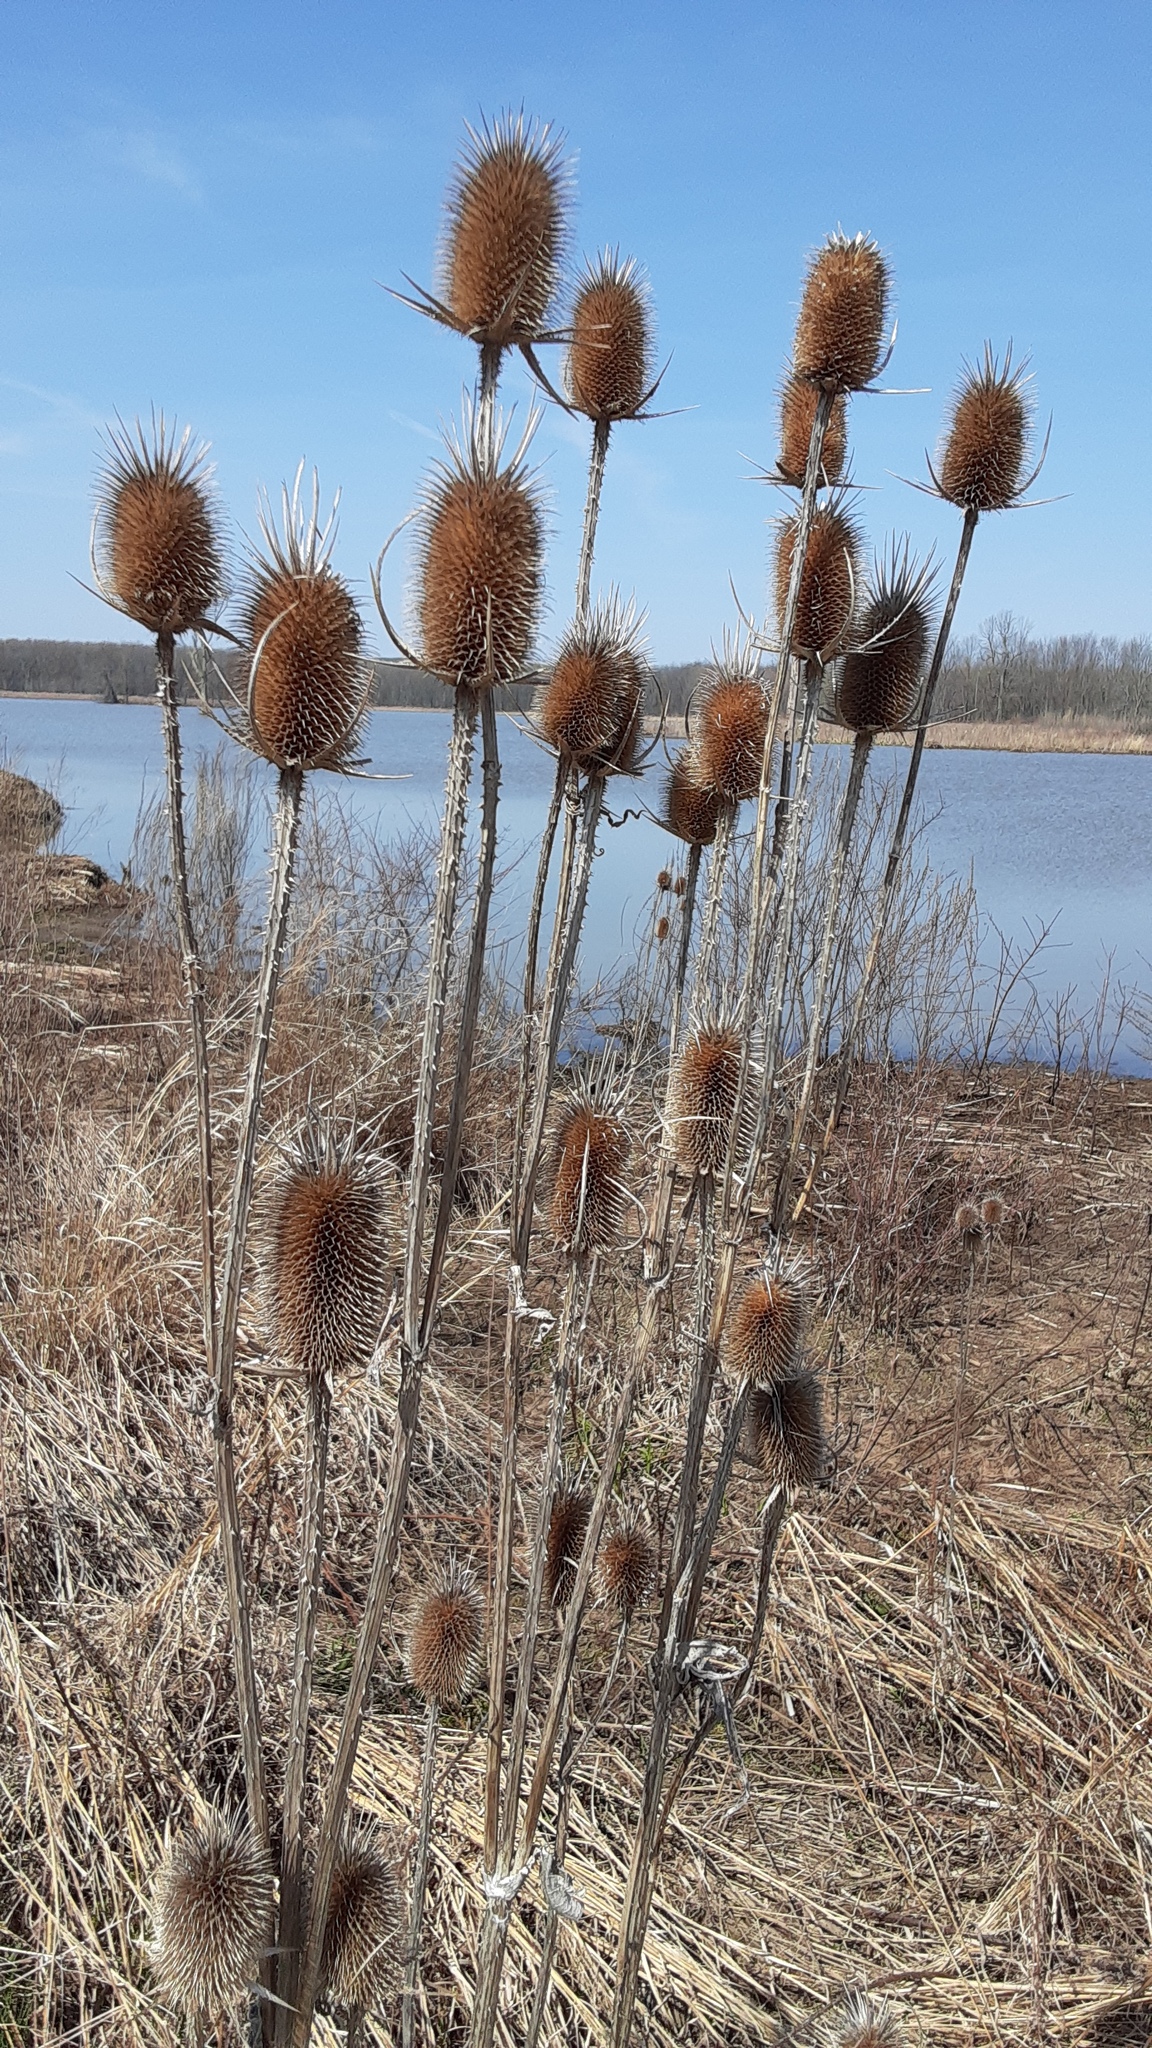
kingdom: Plantae
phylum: Tracheophyta
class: Magnoliopsida
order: Dipsacales
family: Caprifoliaceae
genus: Dipsacus
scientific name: Dipsacus laciniatus
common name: Cut-leaved teasel
